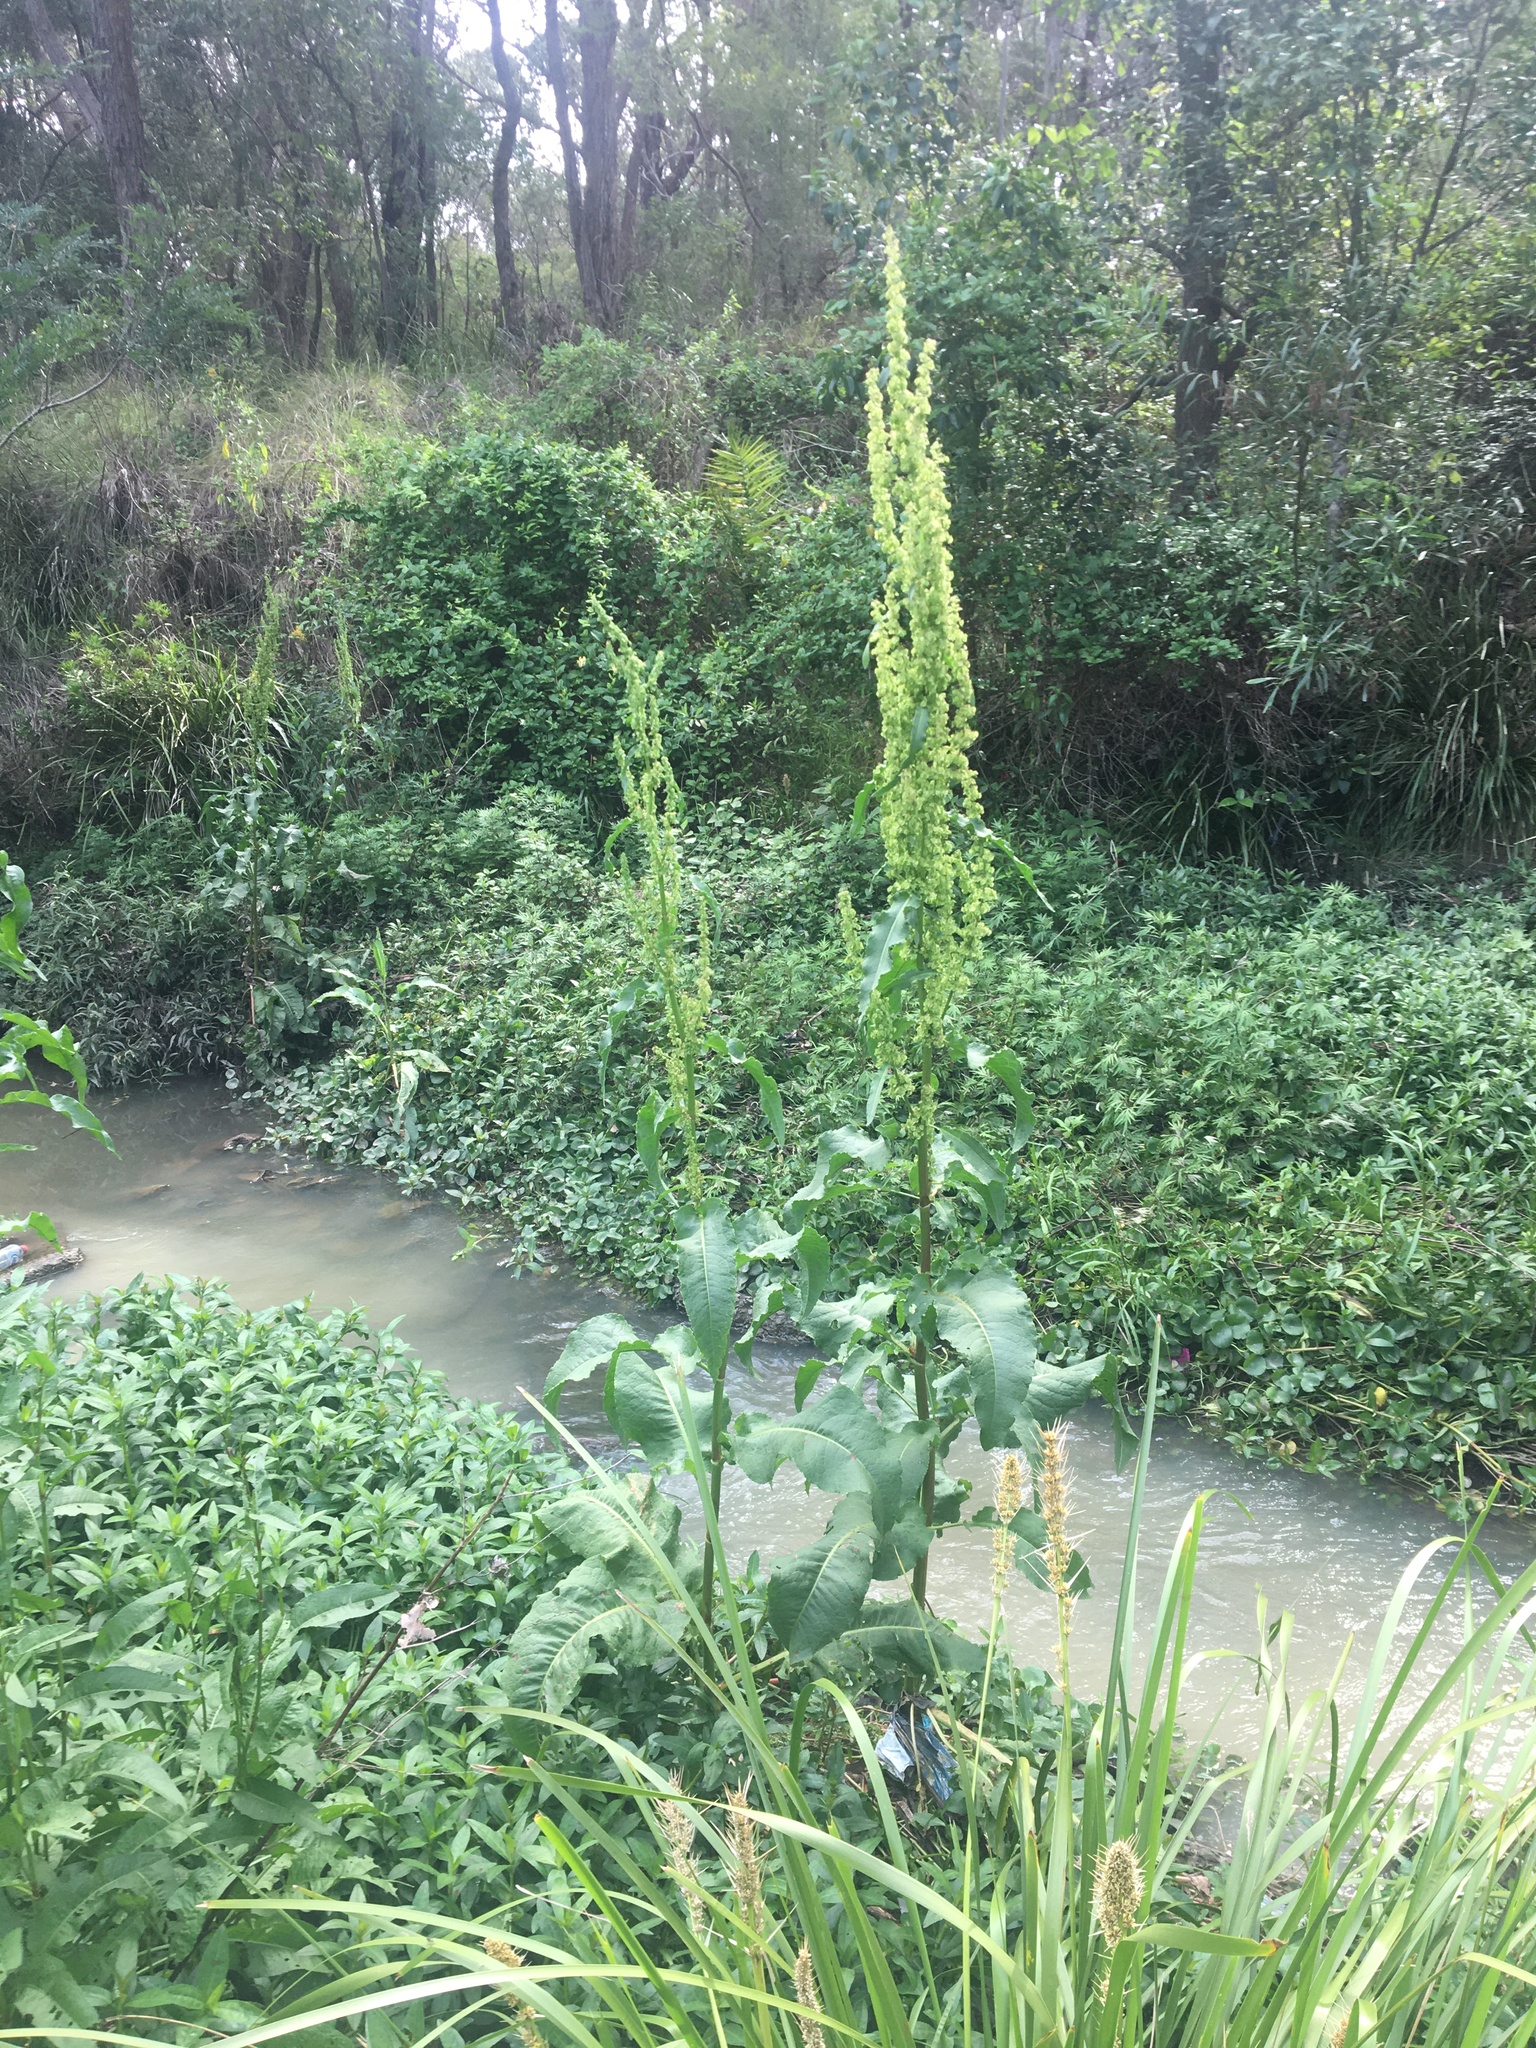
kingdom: Plantae
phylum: Tracheophyta
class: Magnoliopsida
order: Caryophyllales
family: Polygonaceae
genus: Rumex
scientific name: Rumex crispus
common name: Curled dock
